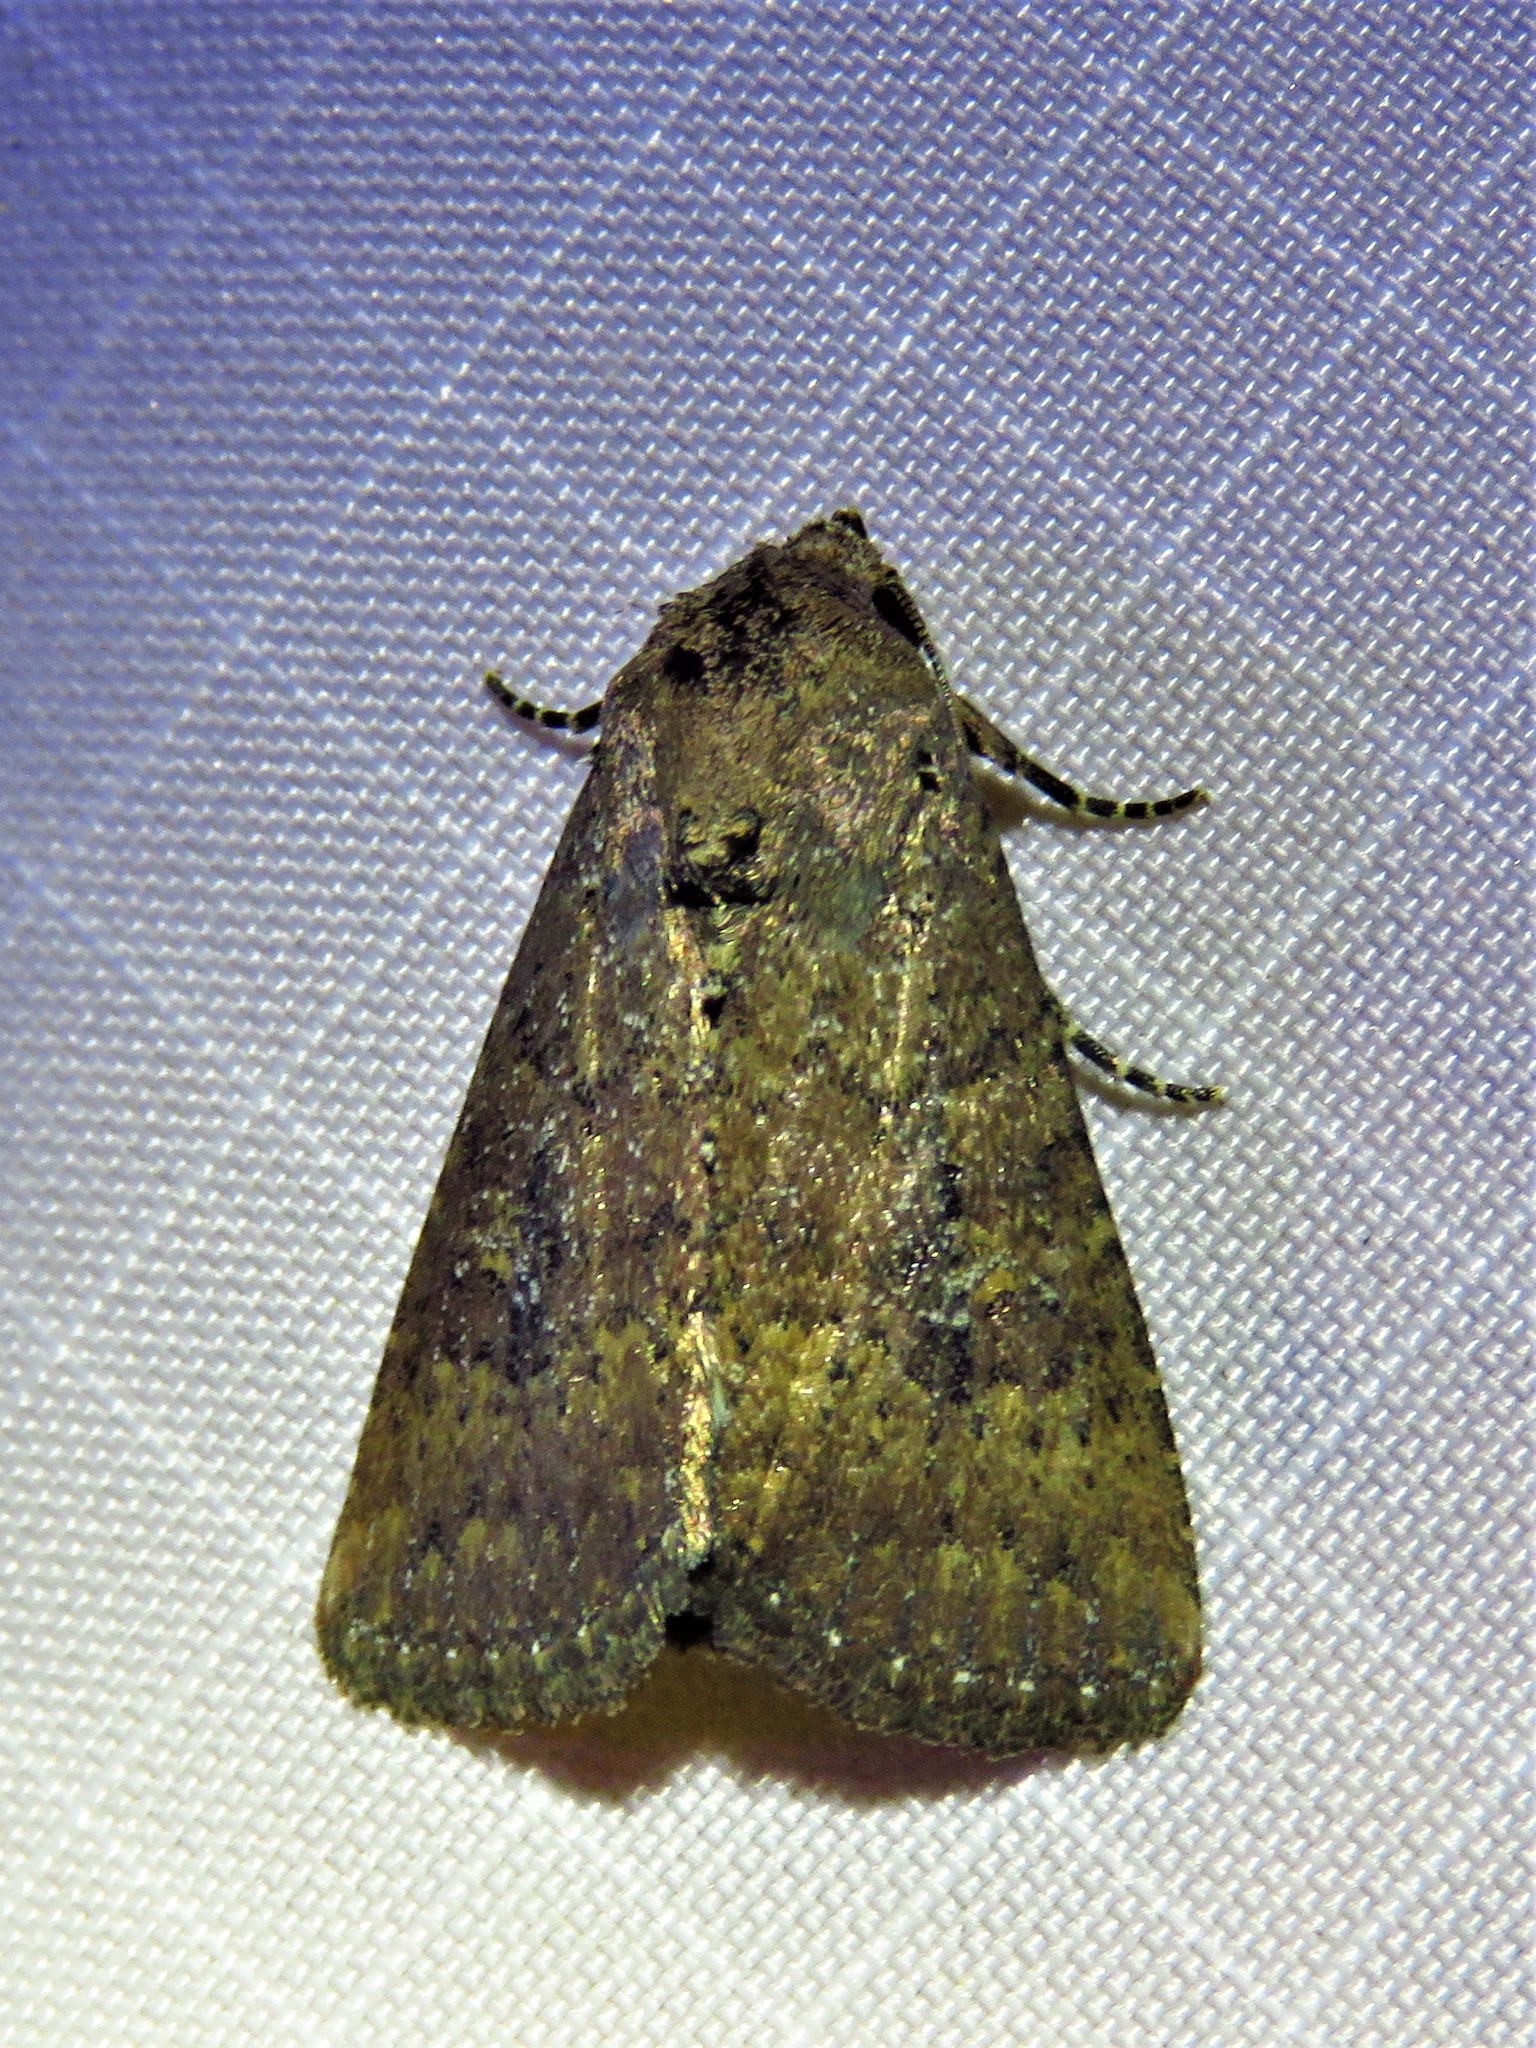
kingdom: Animalia
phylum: Arthropoda
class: Insecta
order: Lepidoptera
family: Noctuidae
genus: Condica
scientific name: Condica sutor
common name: Cobbler moth
